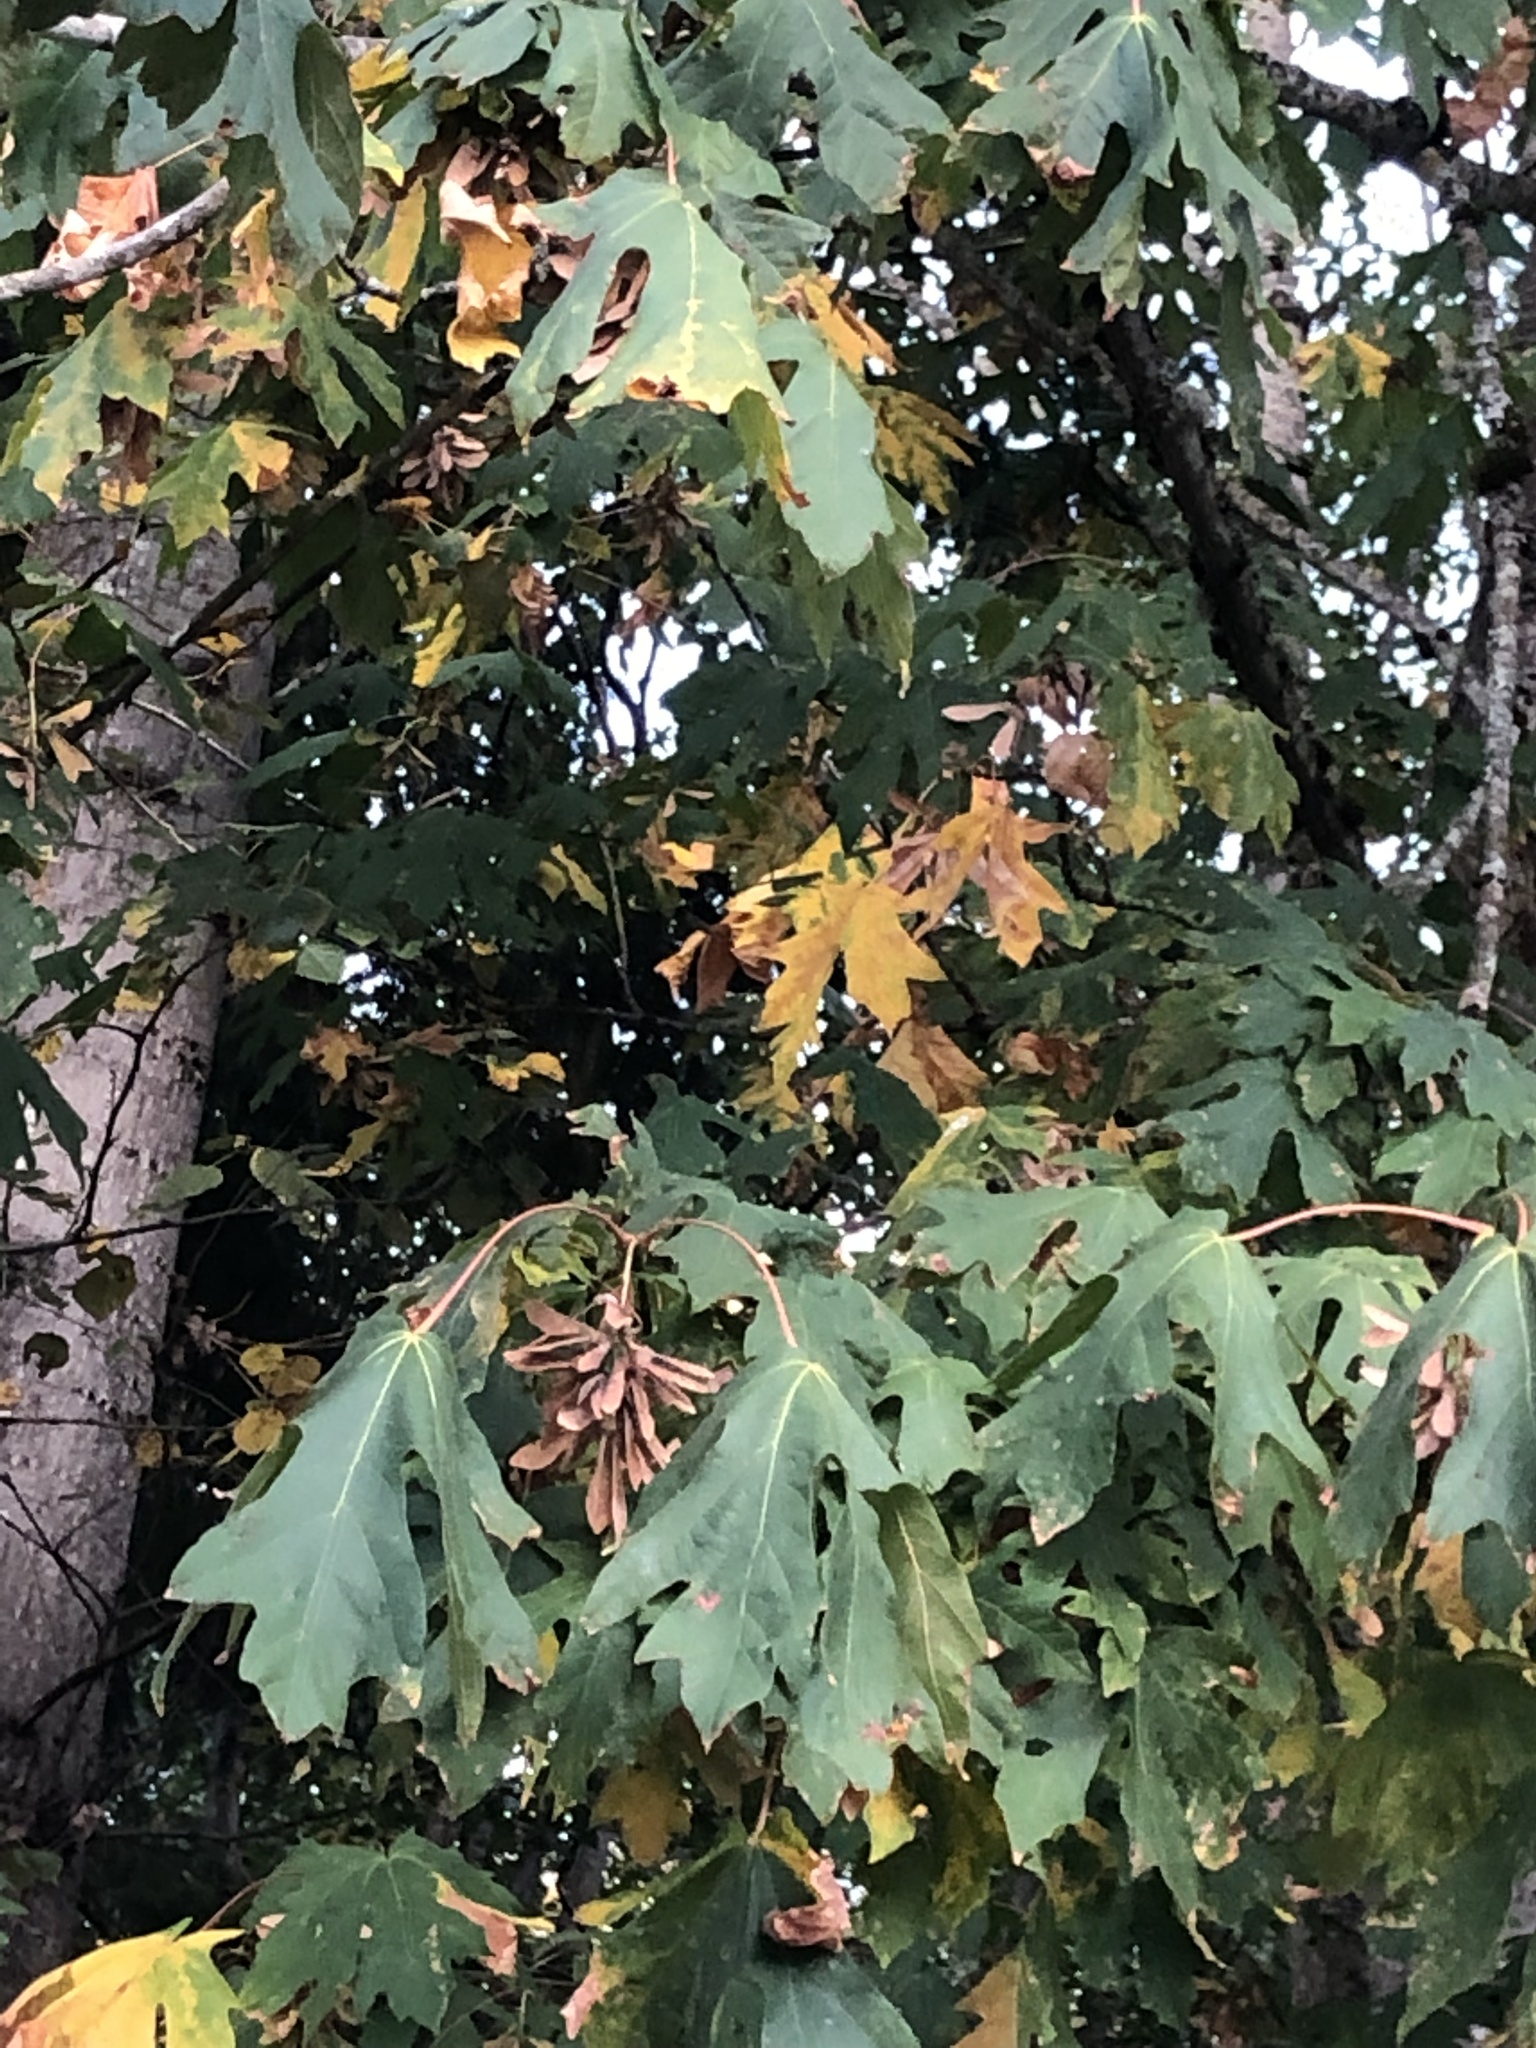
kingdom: Plantae
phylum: Tracheophyta
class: Magnoliopsida
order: Sapindales
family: Sapindaceae
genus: Acer
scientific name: Acer macrophyllum
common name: Oregon maple
